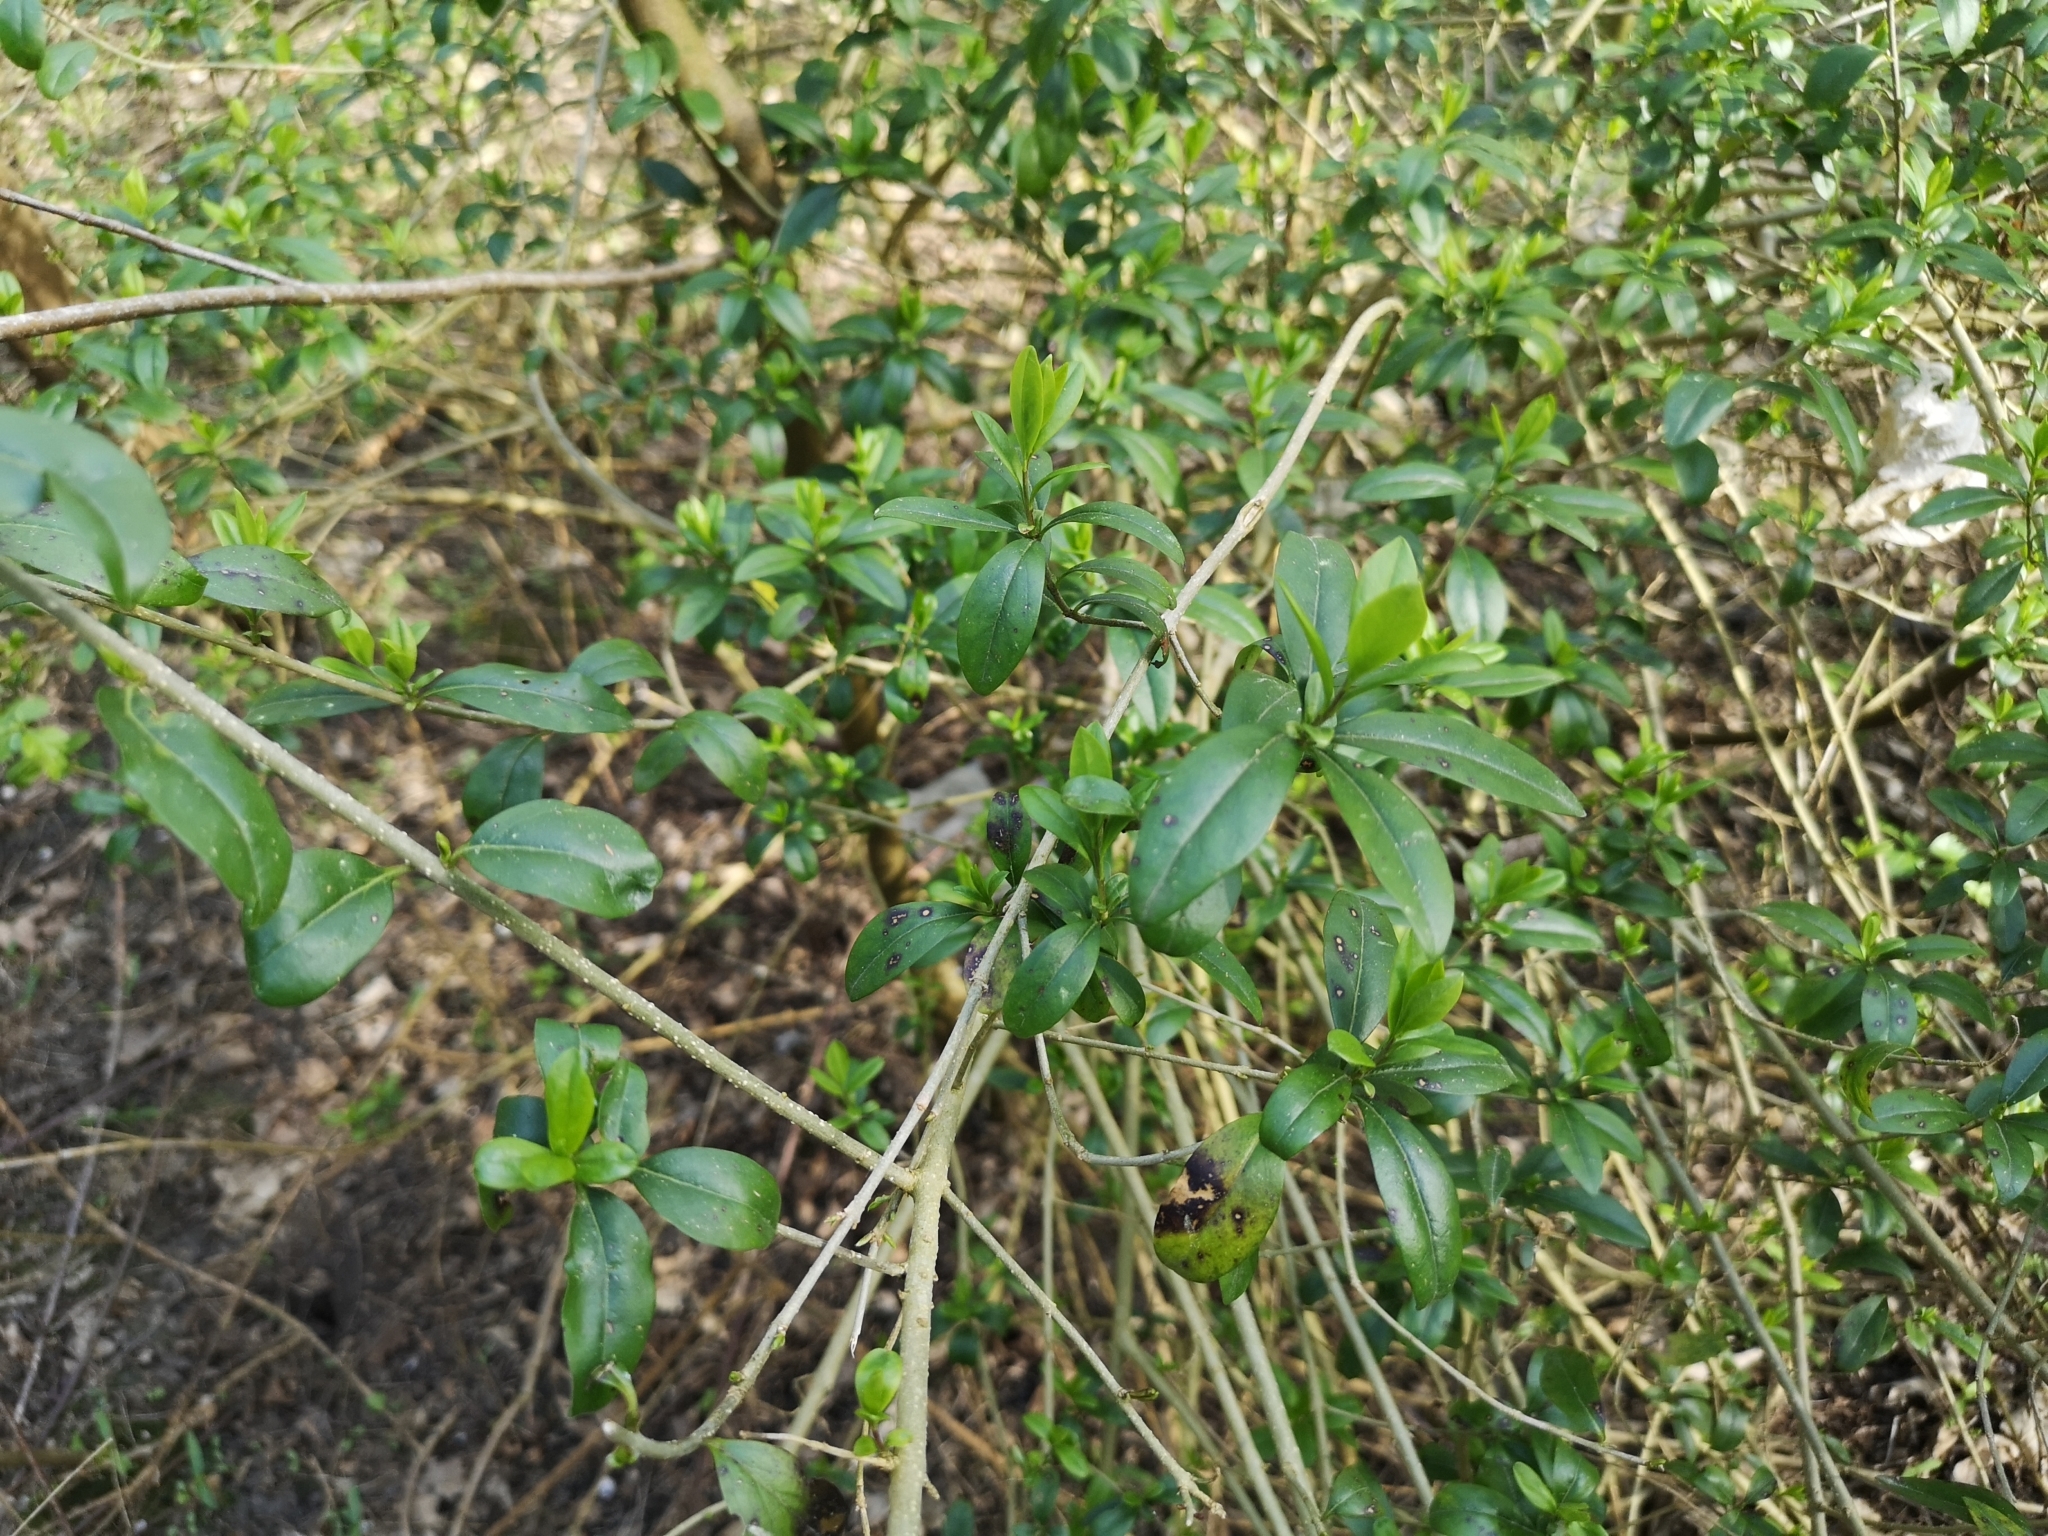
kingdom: Plantae
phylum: Tracheophyta
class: Magnoliopsida
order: Lamiales
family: Oleaceae
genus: Ligustrum
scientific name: Ligustrum vulgare
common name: Wild privet
